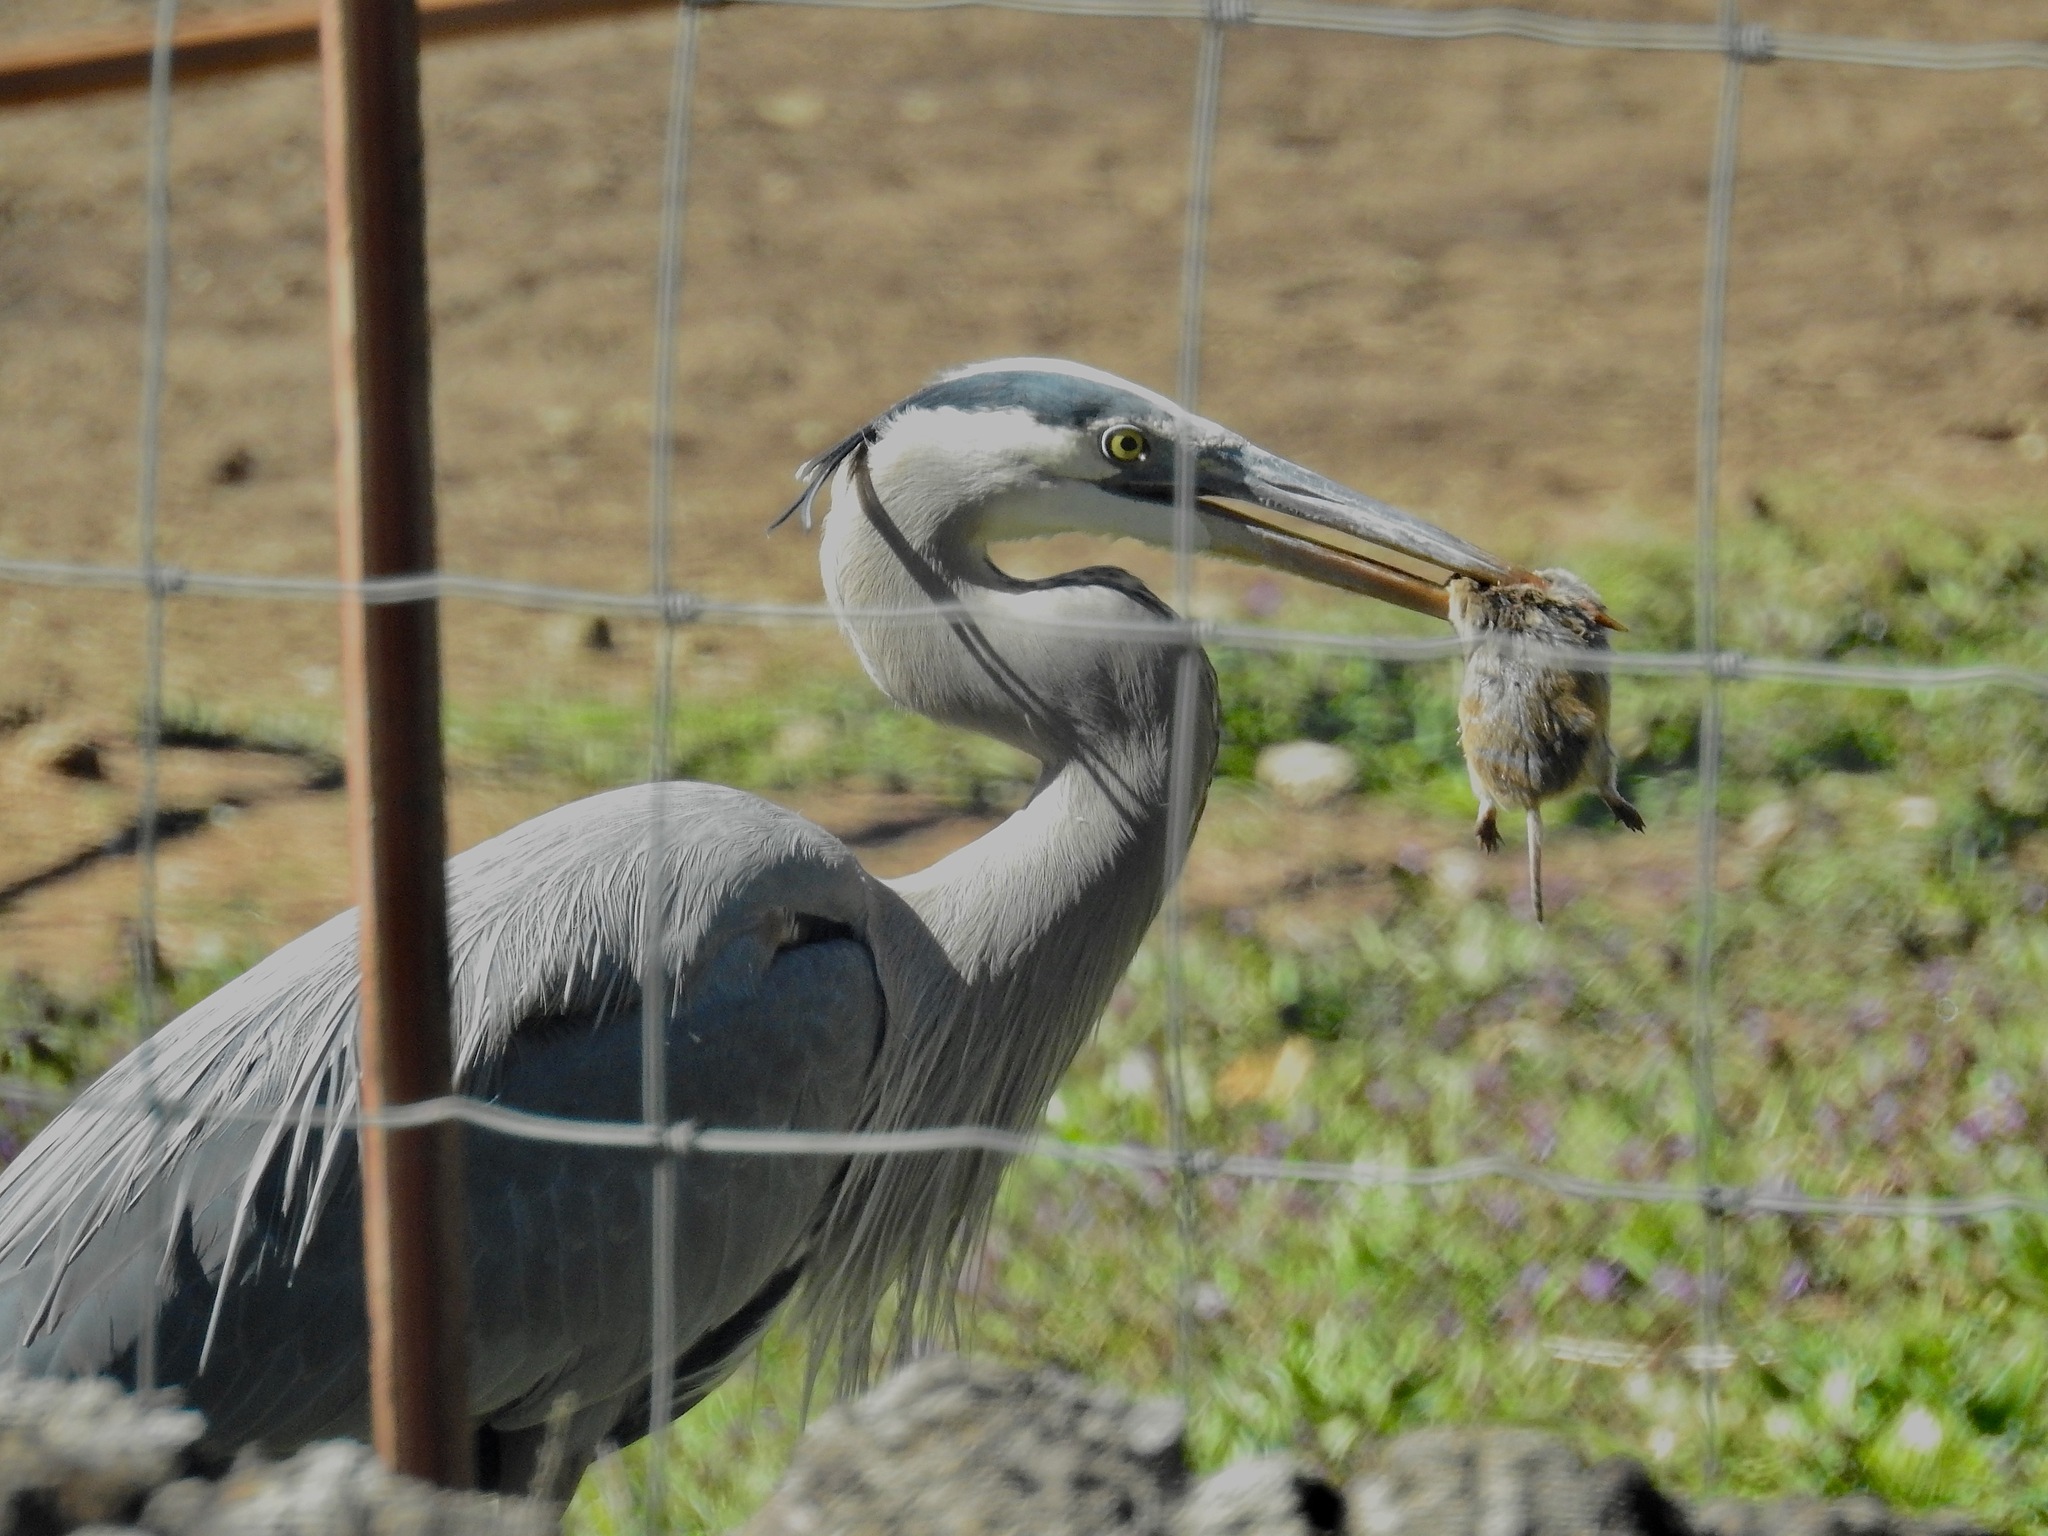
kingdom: Animalia
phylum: Chordata
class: Aves
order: Pelecaniformes
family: Ardeidae
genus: Ardea
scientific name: Ardea herodias
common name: Great blue heron
